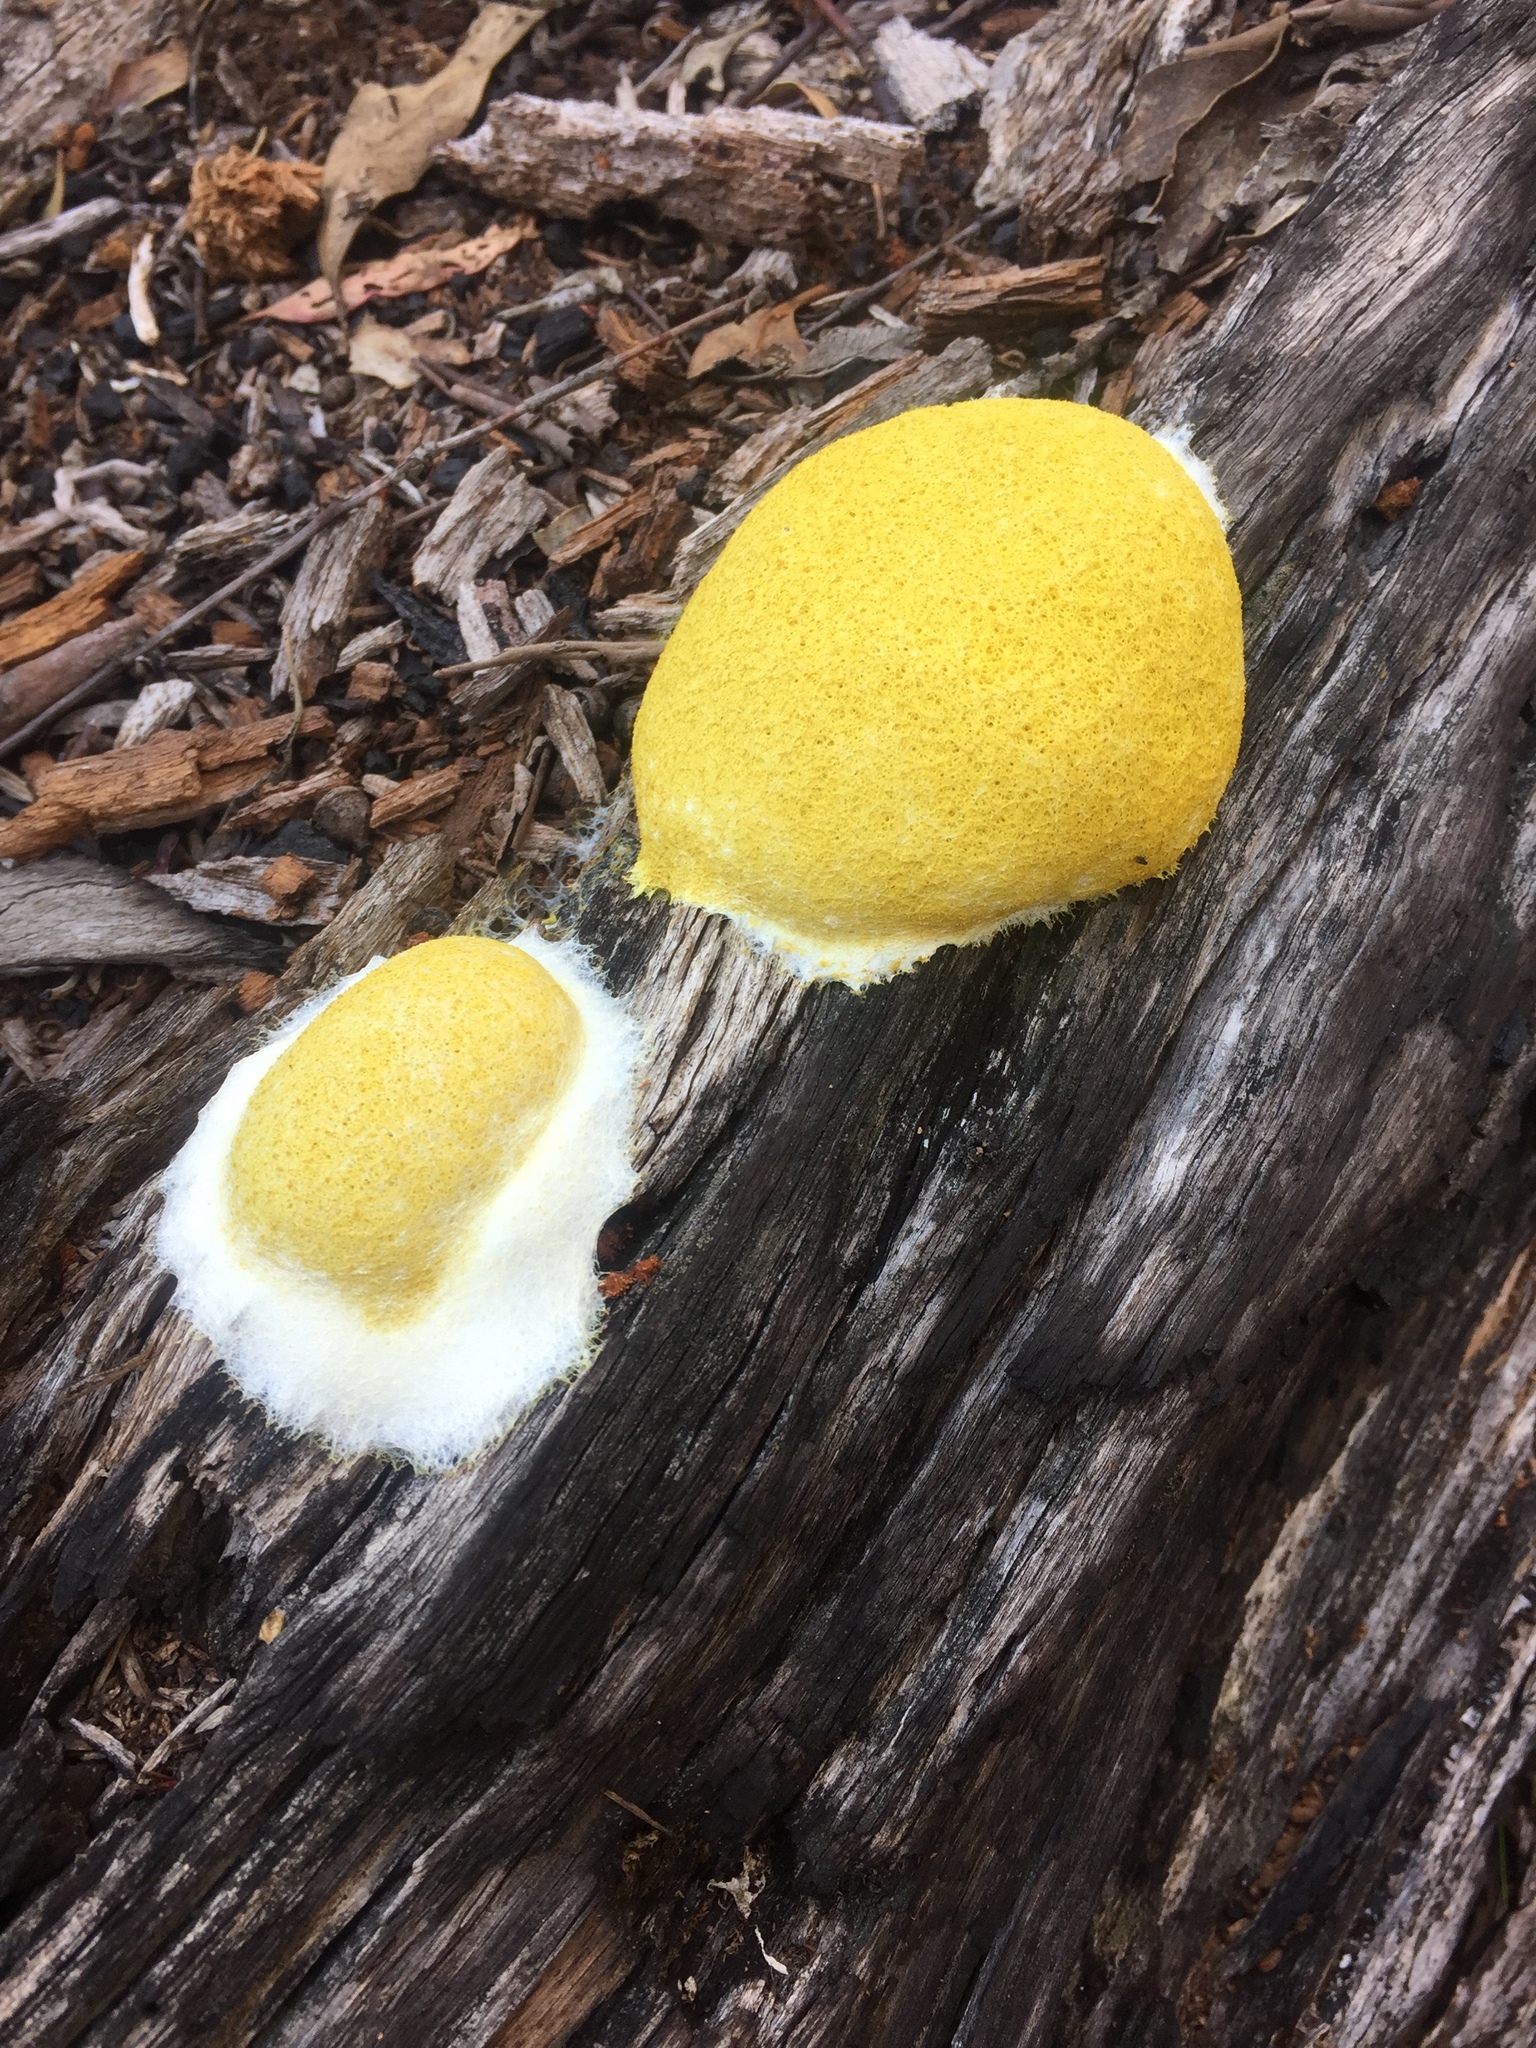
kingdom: Protozoa
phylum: Mycetozoa
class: Myxomycetes
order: Physarales
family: Physaraceae
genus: Fuligo
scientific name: Fuligo septica
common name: Dog vomit slime mold
